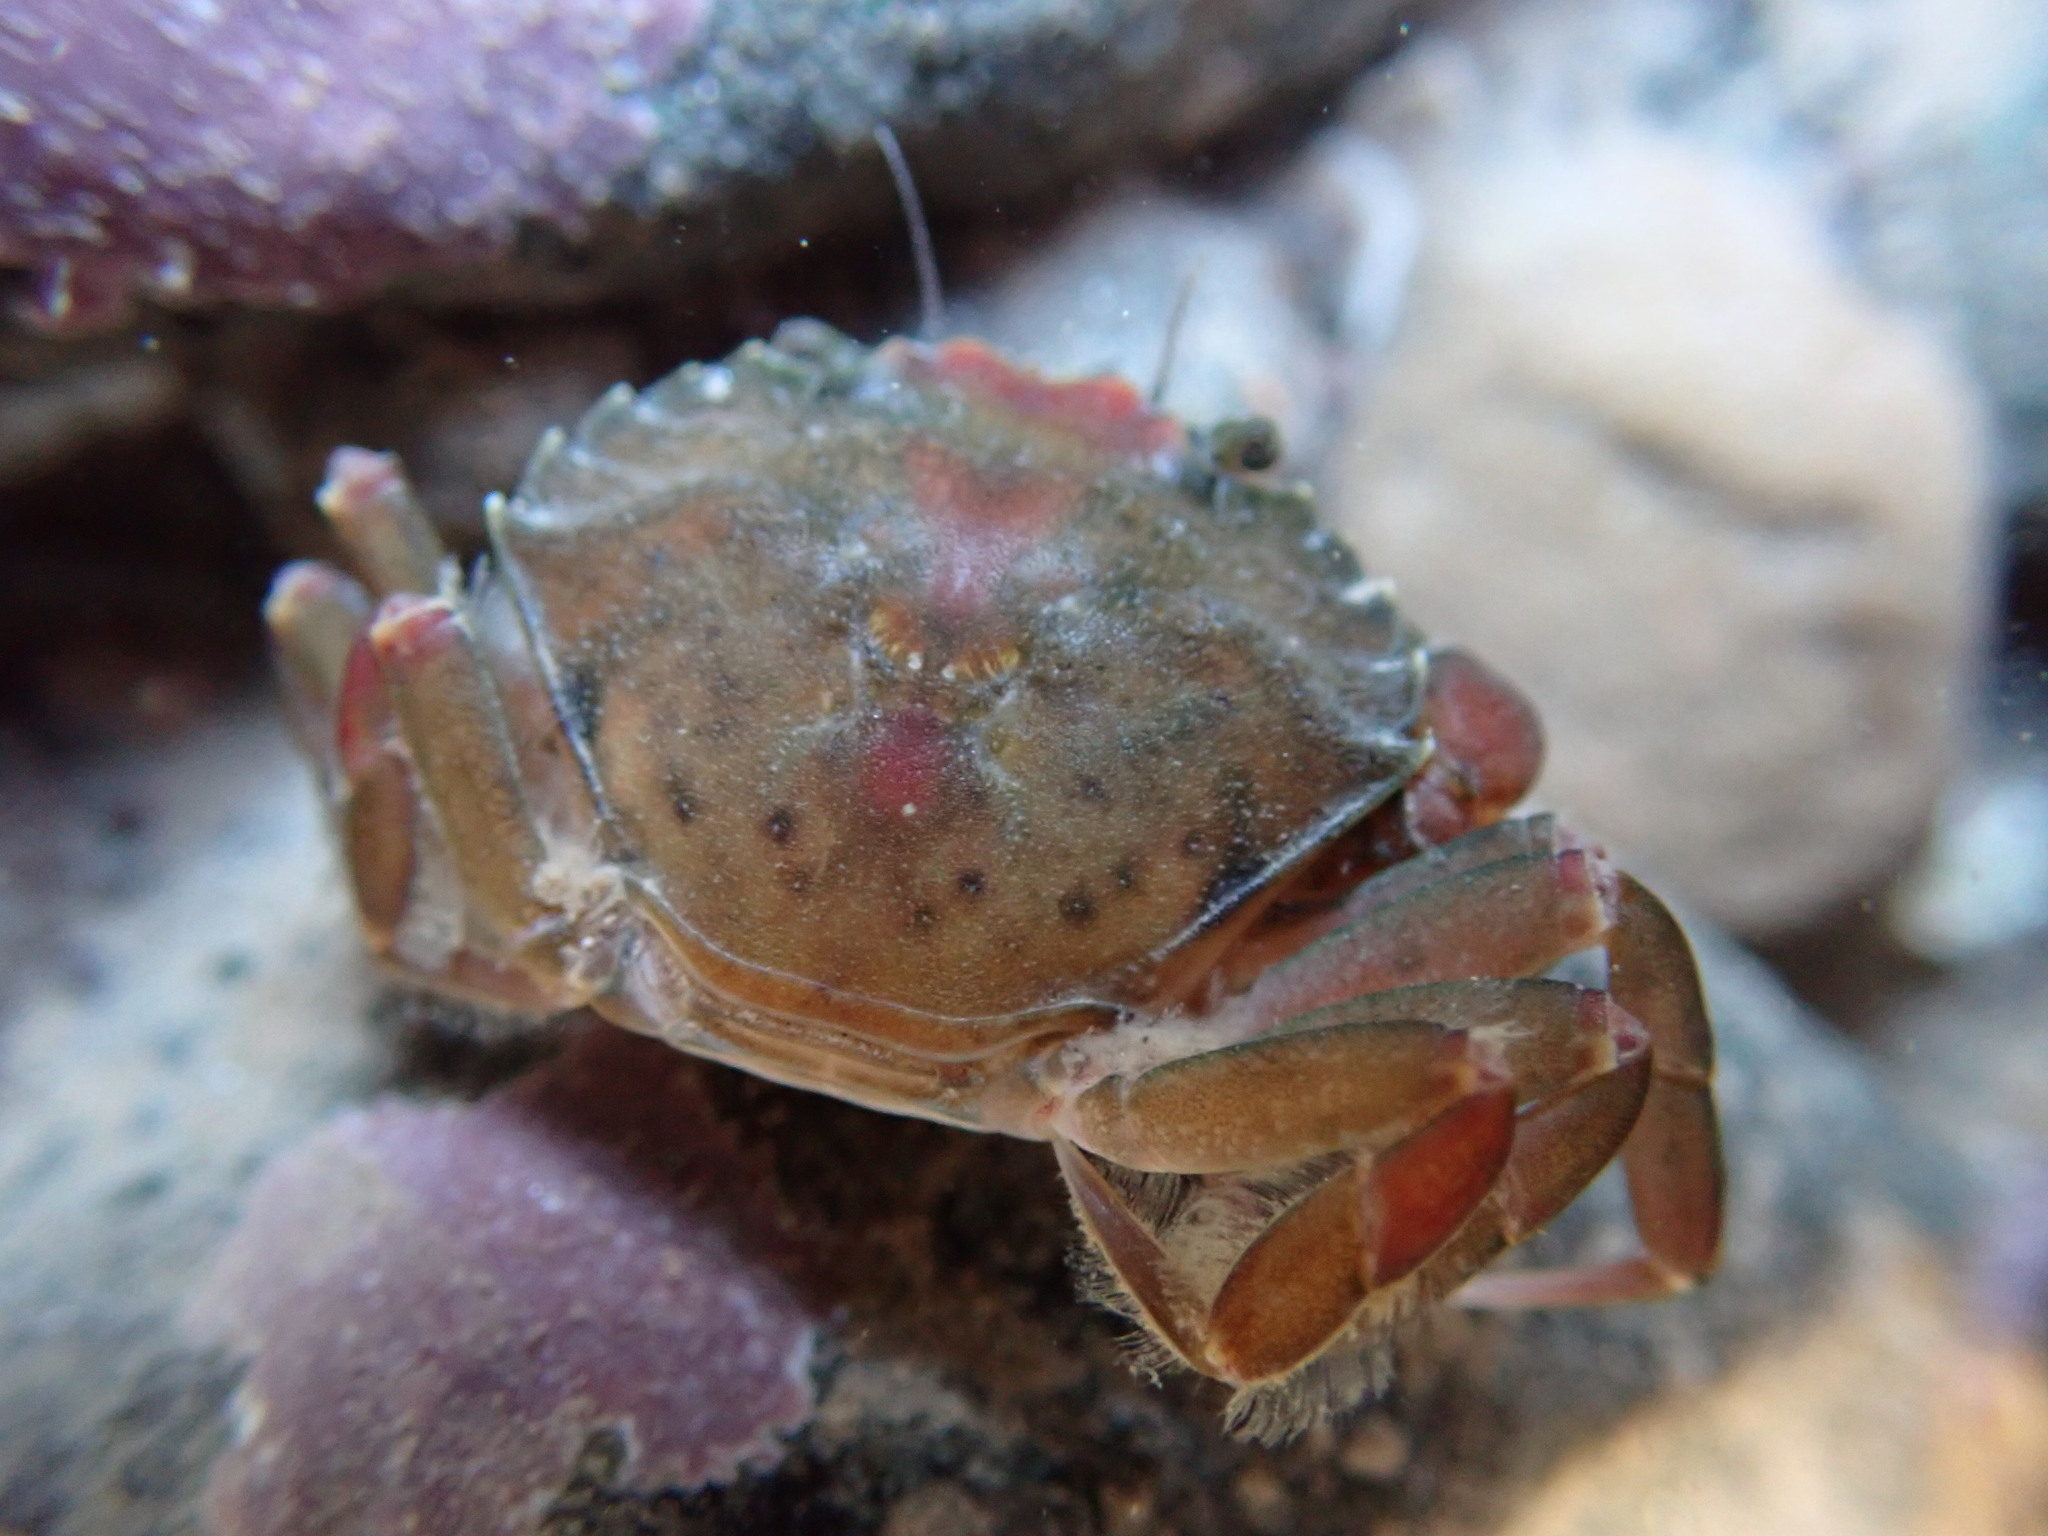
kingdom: Animalia
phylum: Arthropoda
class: Malacostraca
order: Decapoda
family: Carcinidae
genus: Carcinus
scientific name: Carcinus maenas
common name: European green crab
